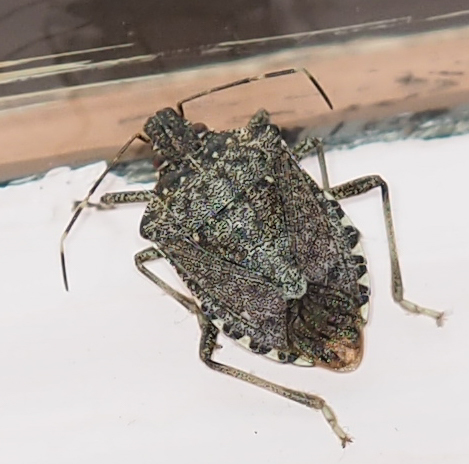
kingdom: Animalia
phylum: Arthropoda
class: Insecta
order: Hemiptera
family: Pentatomidae
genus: Halyomorpha
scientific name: Halyomorpha halys
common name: Brown marmorated stink bug
